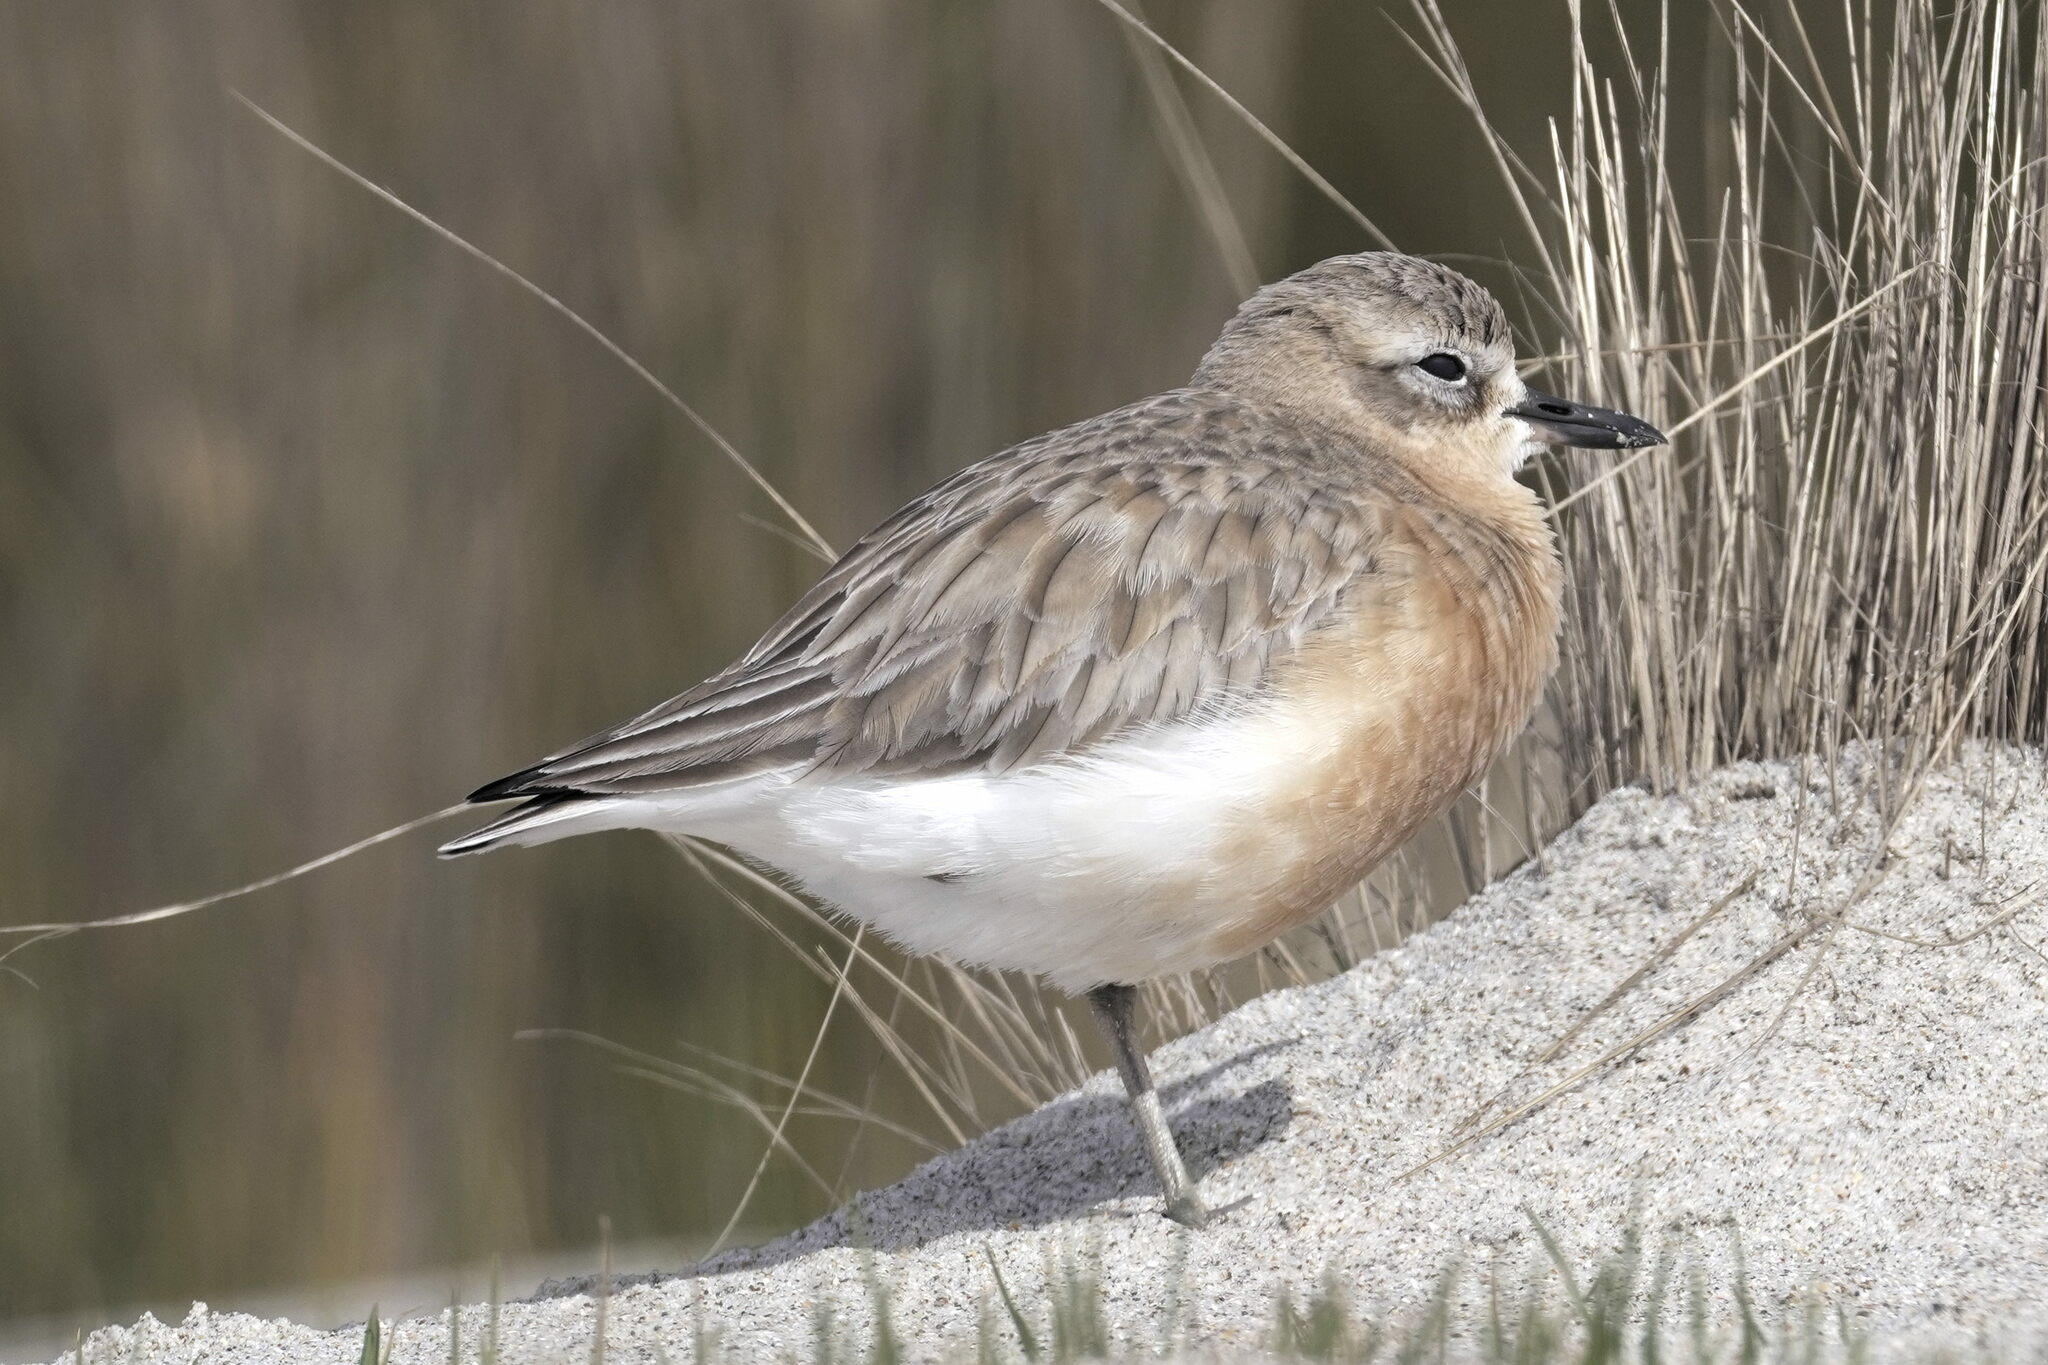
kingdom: Animalia
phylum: Chordata
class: Aves
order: Charadriiformes
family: Charadriidae
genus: Anarhynchus
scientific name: Anarhynchus
